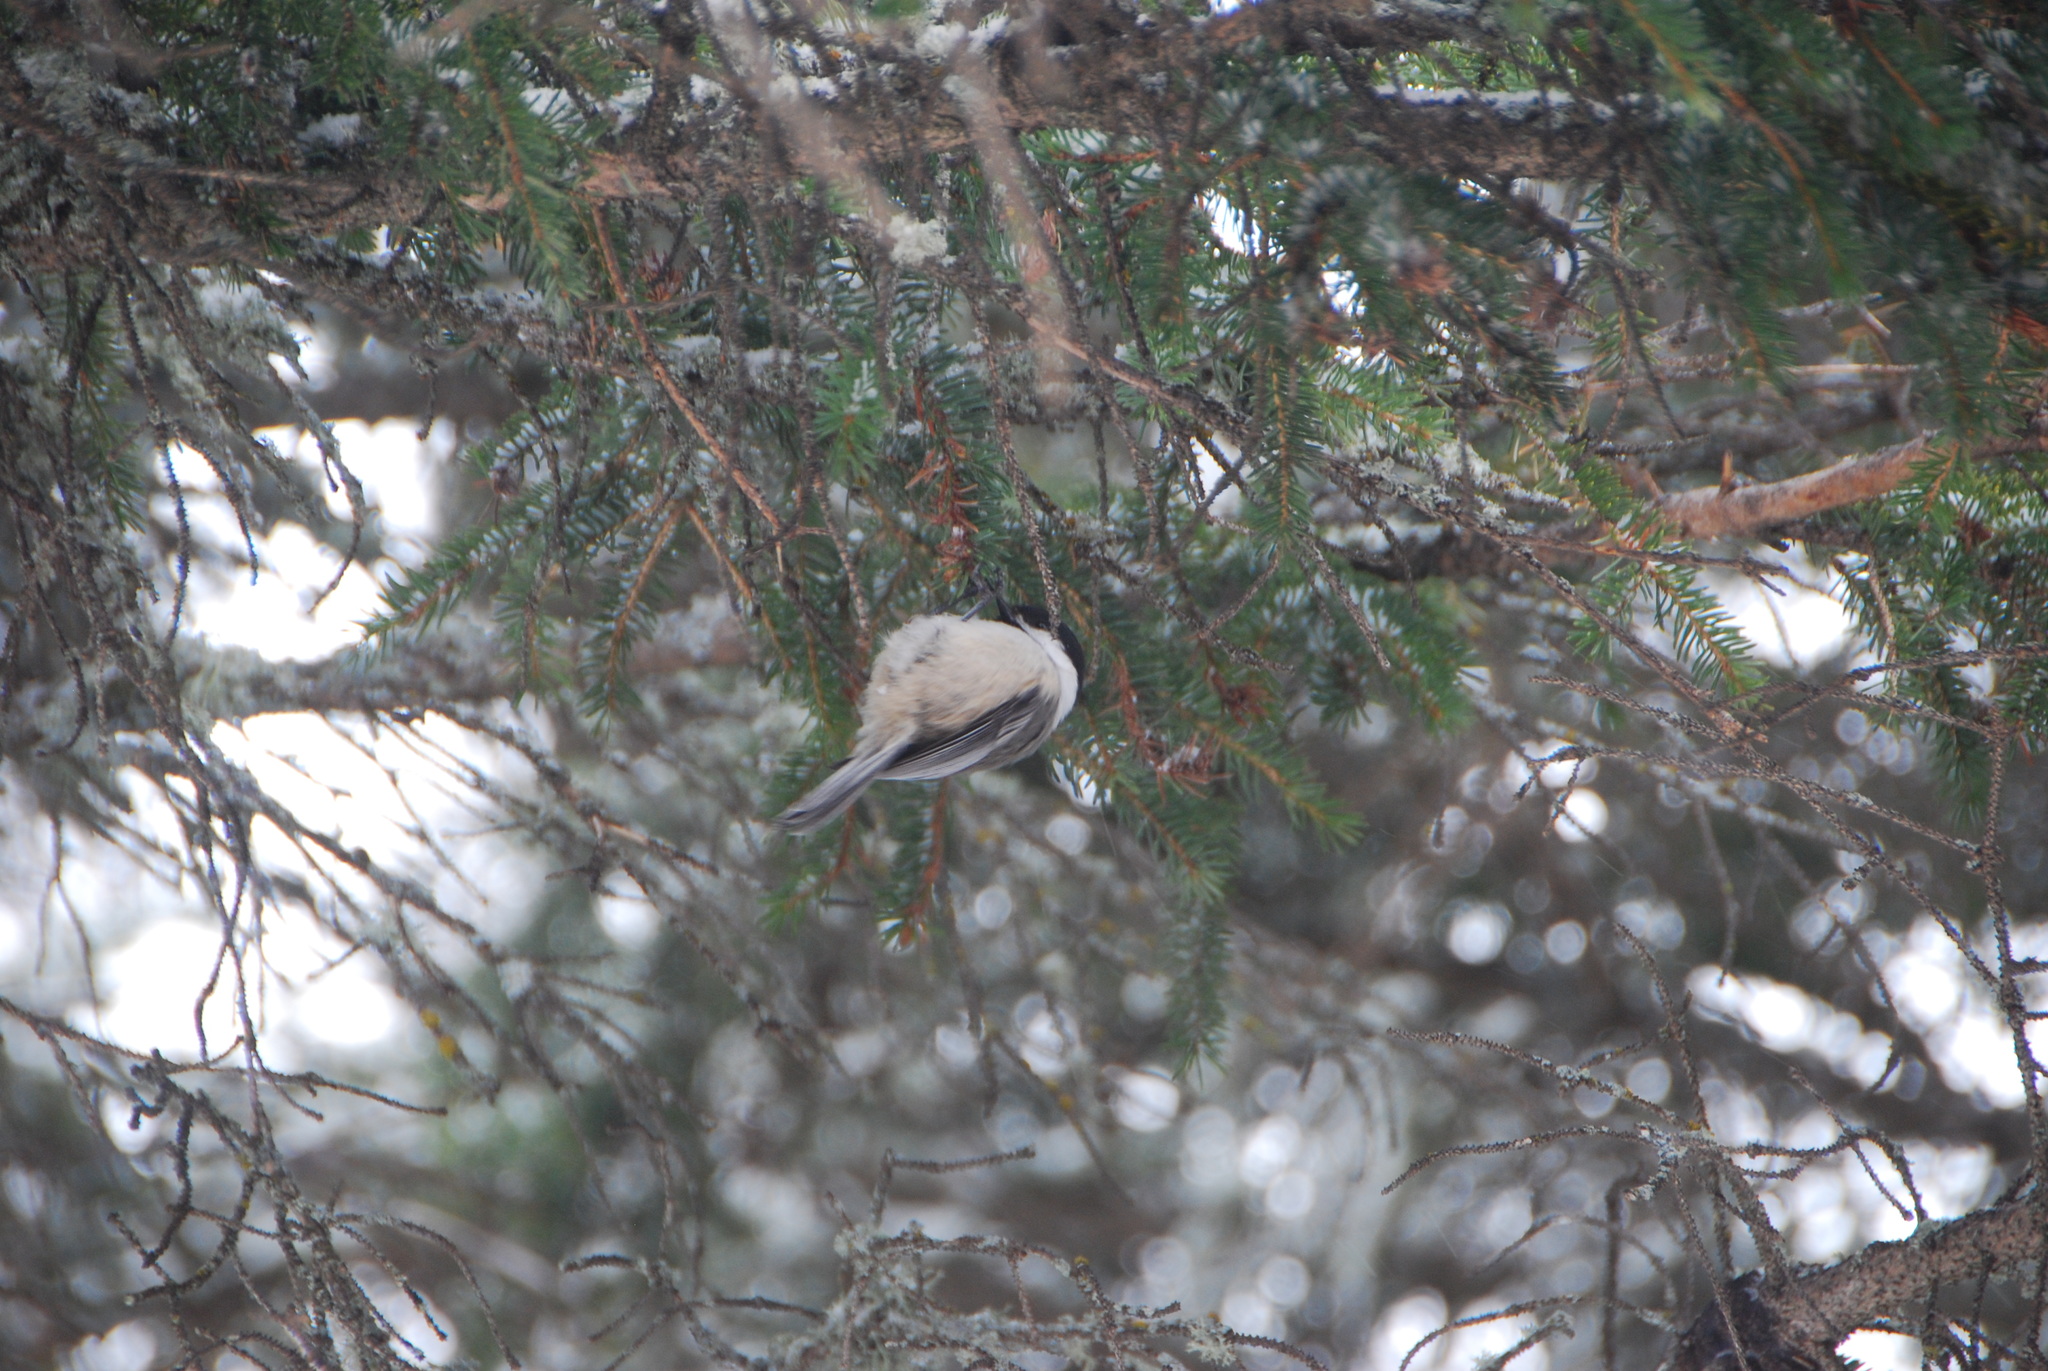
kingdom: Animalia
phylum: Chordata
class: Aves
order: Passeriformes
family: Paridae
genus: Poecile
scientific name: Poecile atricapillus
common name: Black-capped chickadee
